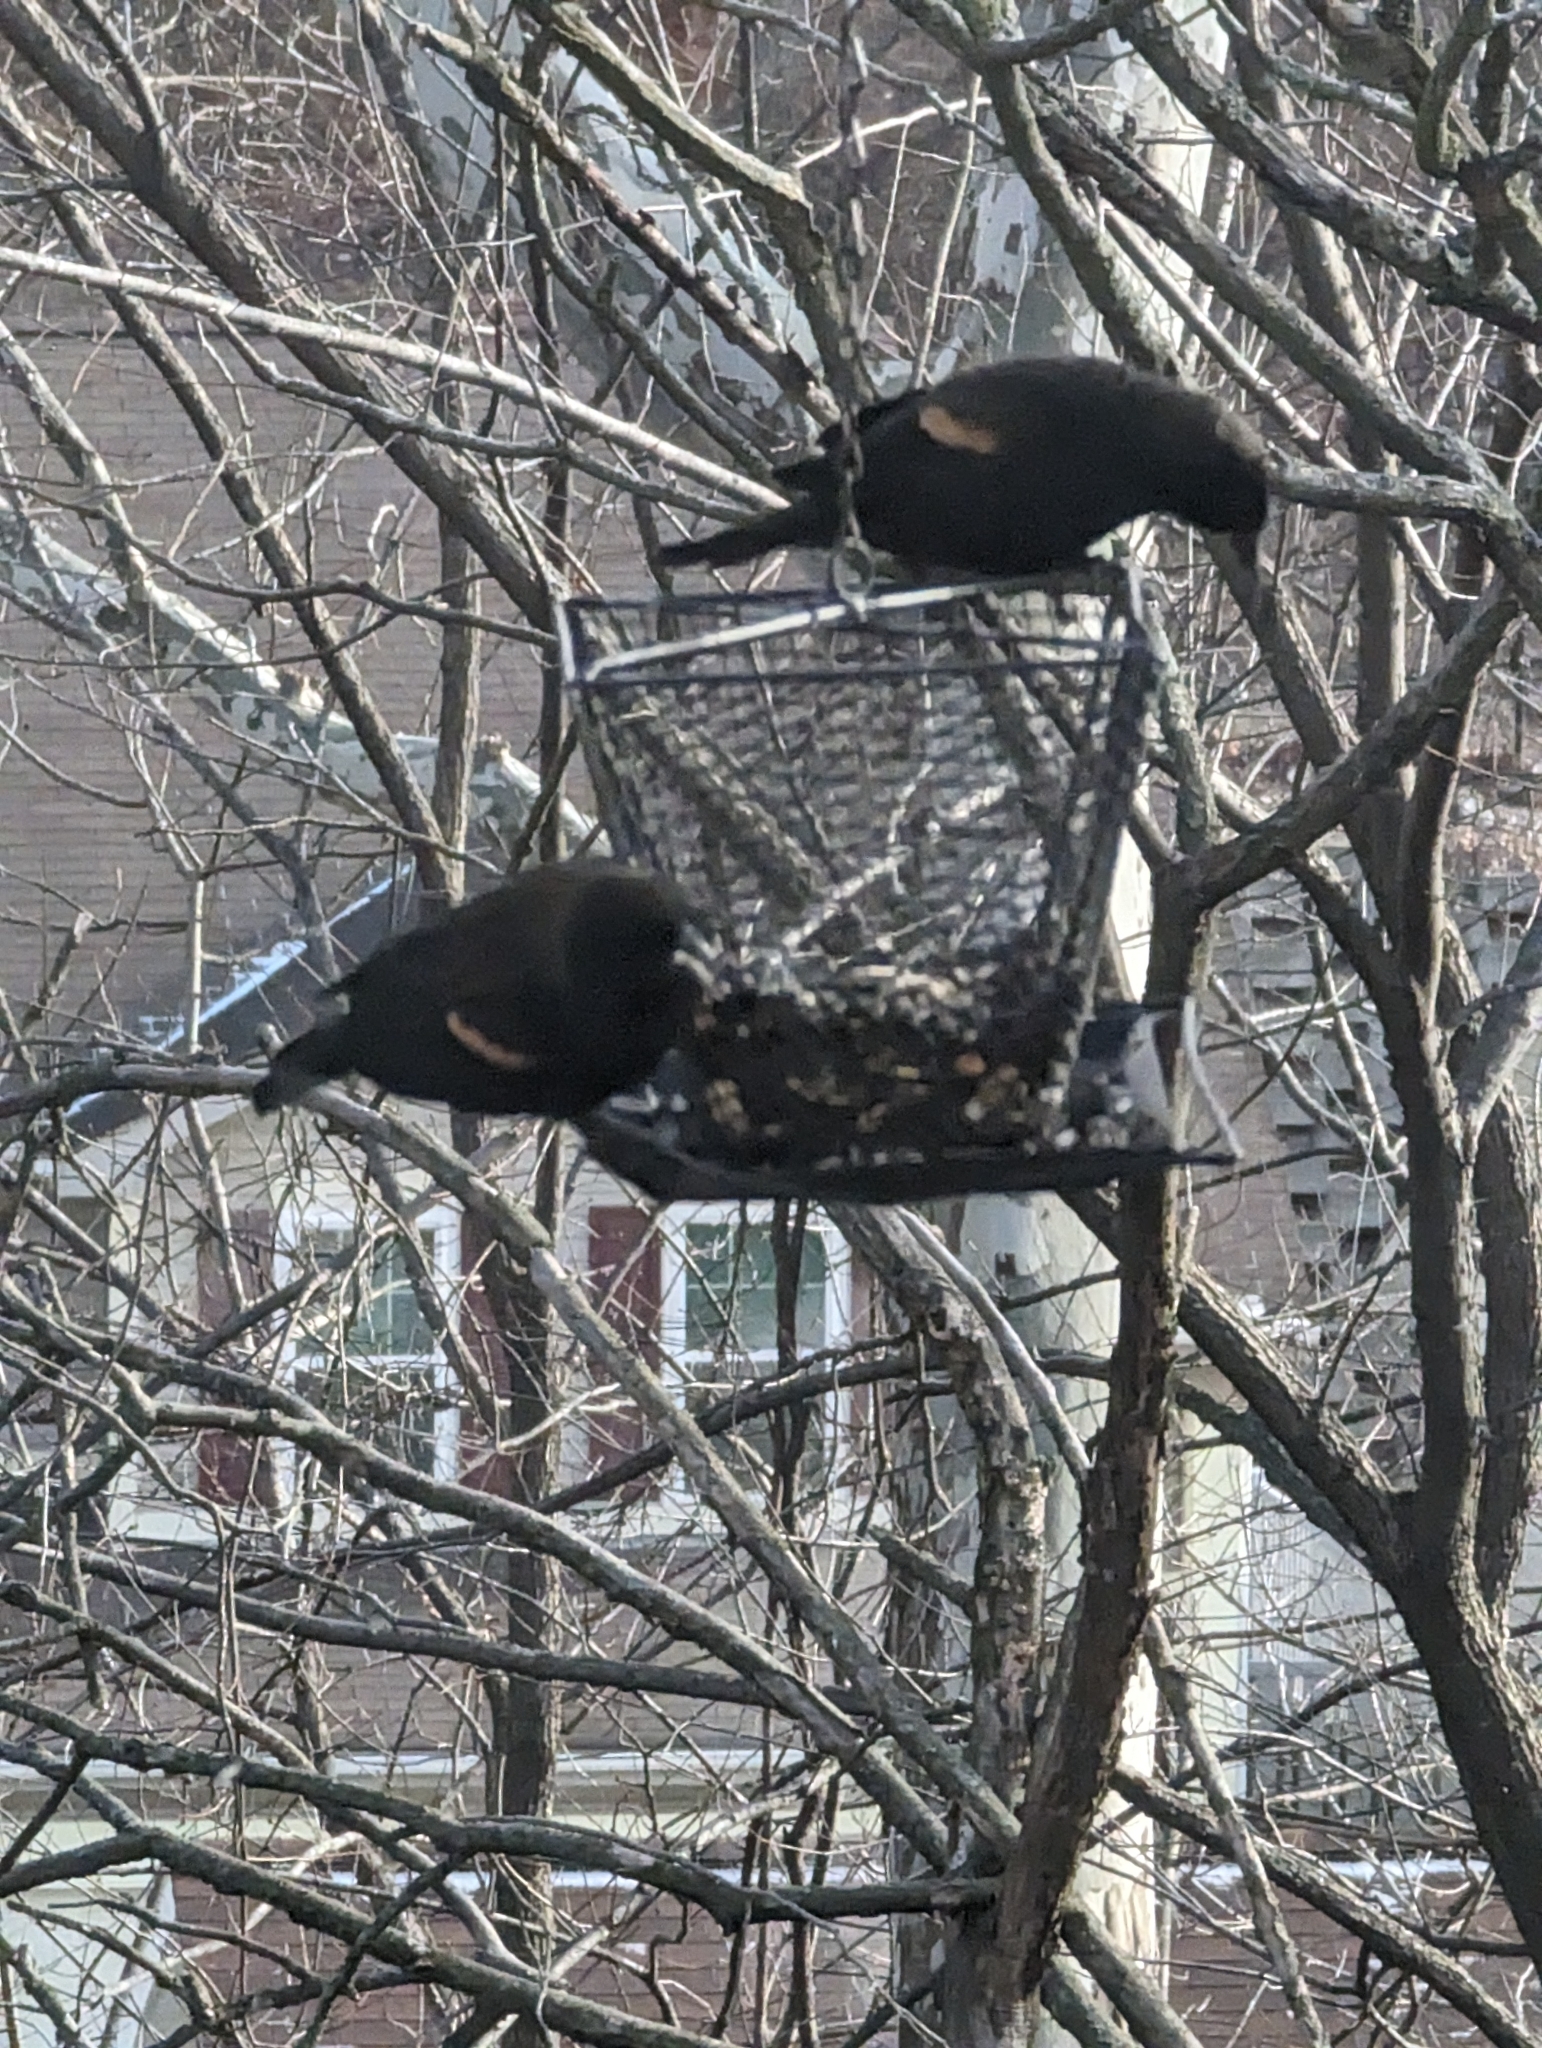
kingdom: Animalia
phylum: Chordata
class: Aves
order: Passeriformes
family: Icteridae
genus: Agelaius
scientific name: Agelaius phoeniceus
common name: Red-winged blackbird
